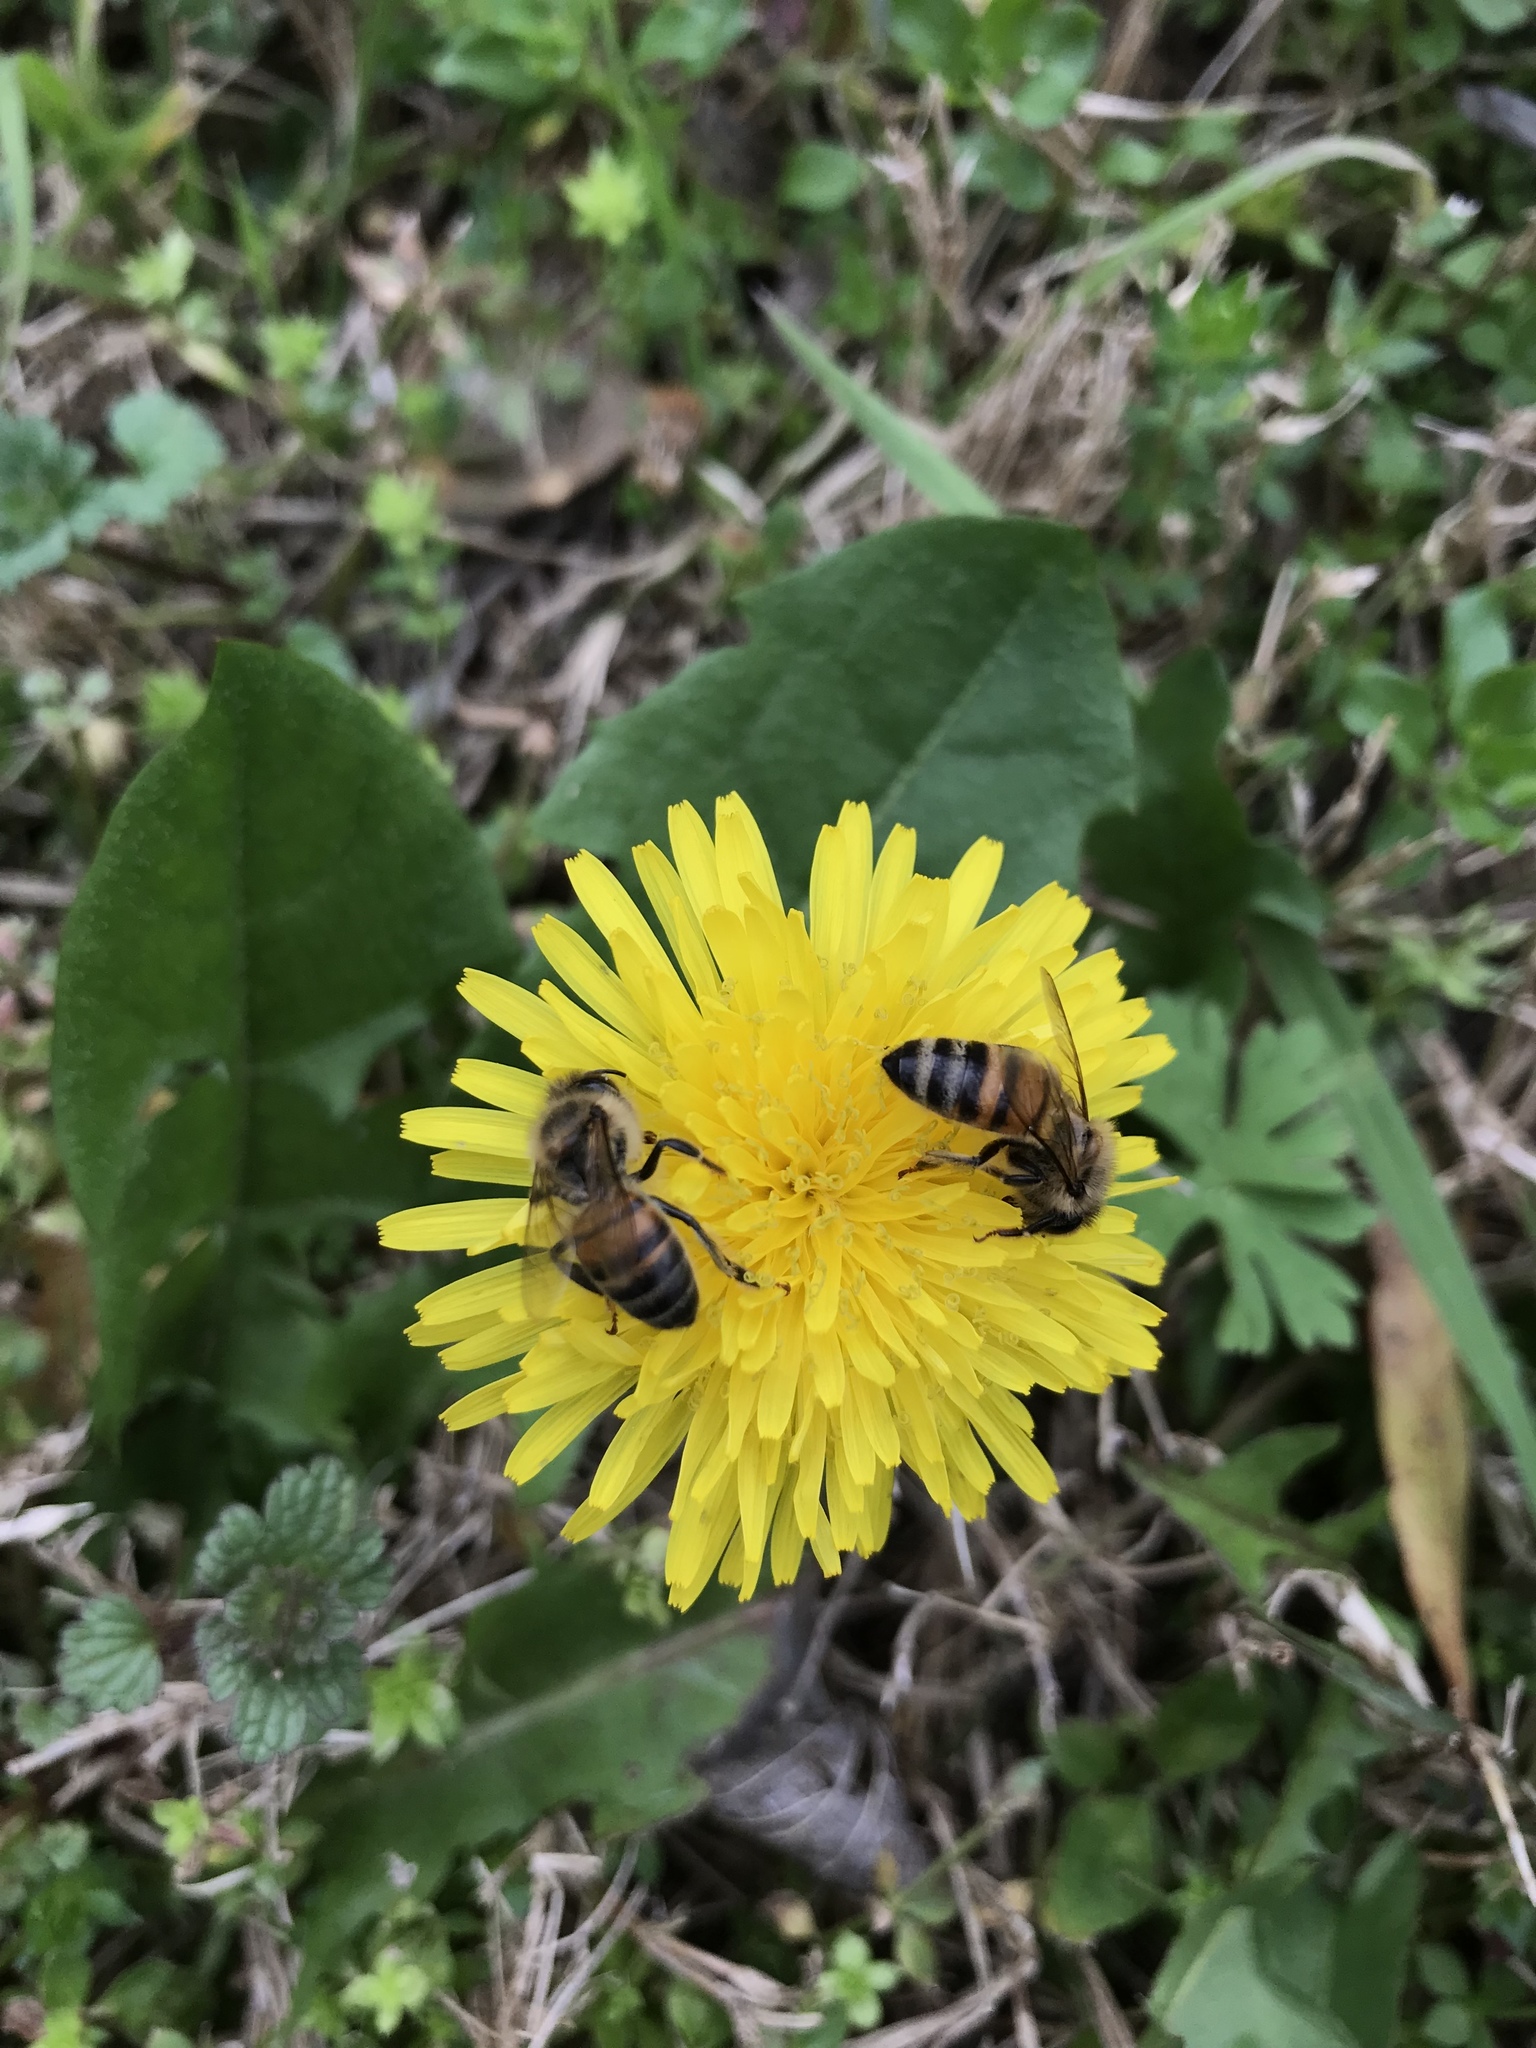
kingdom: Animalia
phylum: Arthropoda
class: Insecta
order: Hymenoptera
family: Apidae
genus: Apis
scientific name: Apis mellifera
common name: Honey bee
